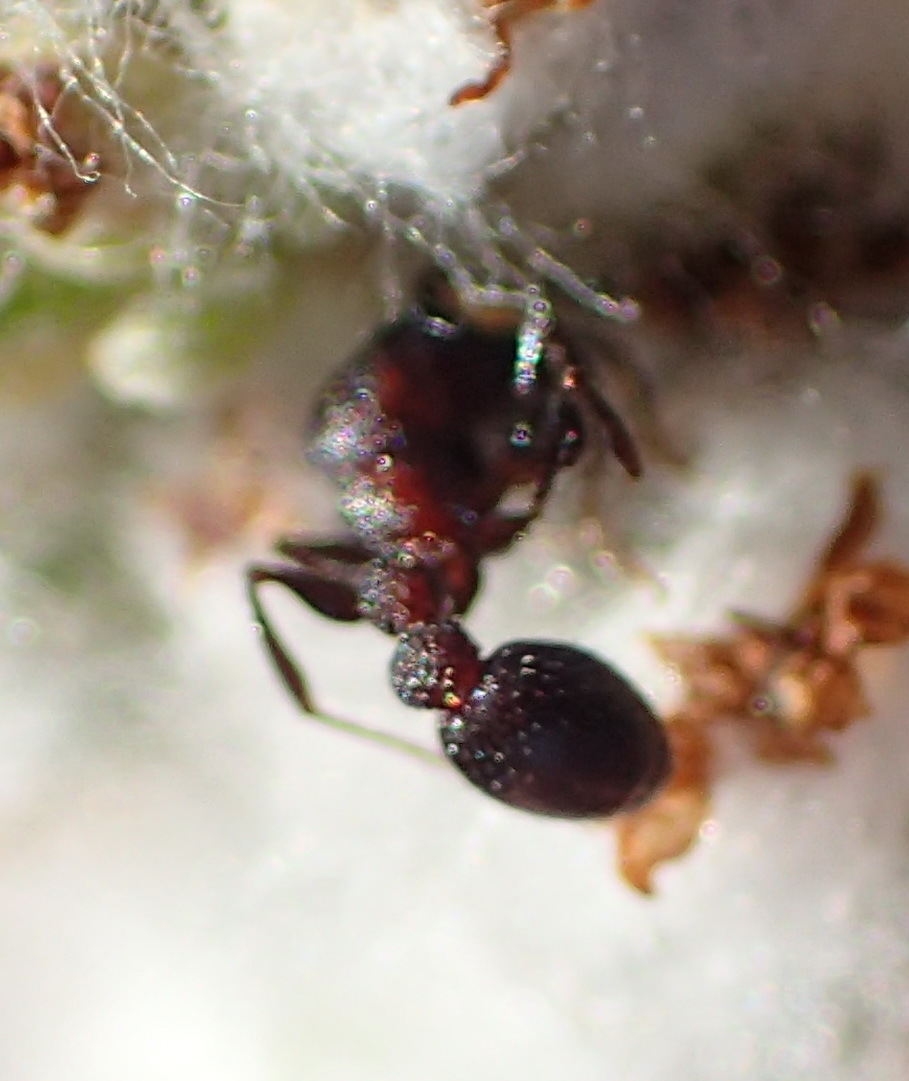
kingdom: Animalia
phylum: Arthropoda
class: Insecta
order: Hymenoptera
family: Formicidae
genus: Nesomyrmex
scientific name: Nesomyrmex saasveldensis
